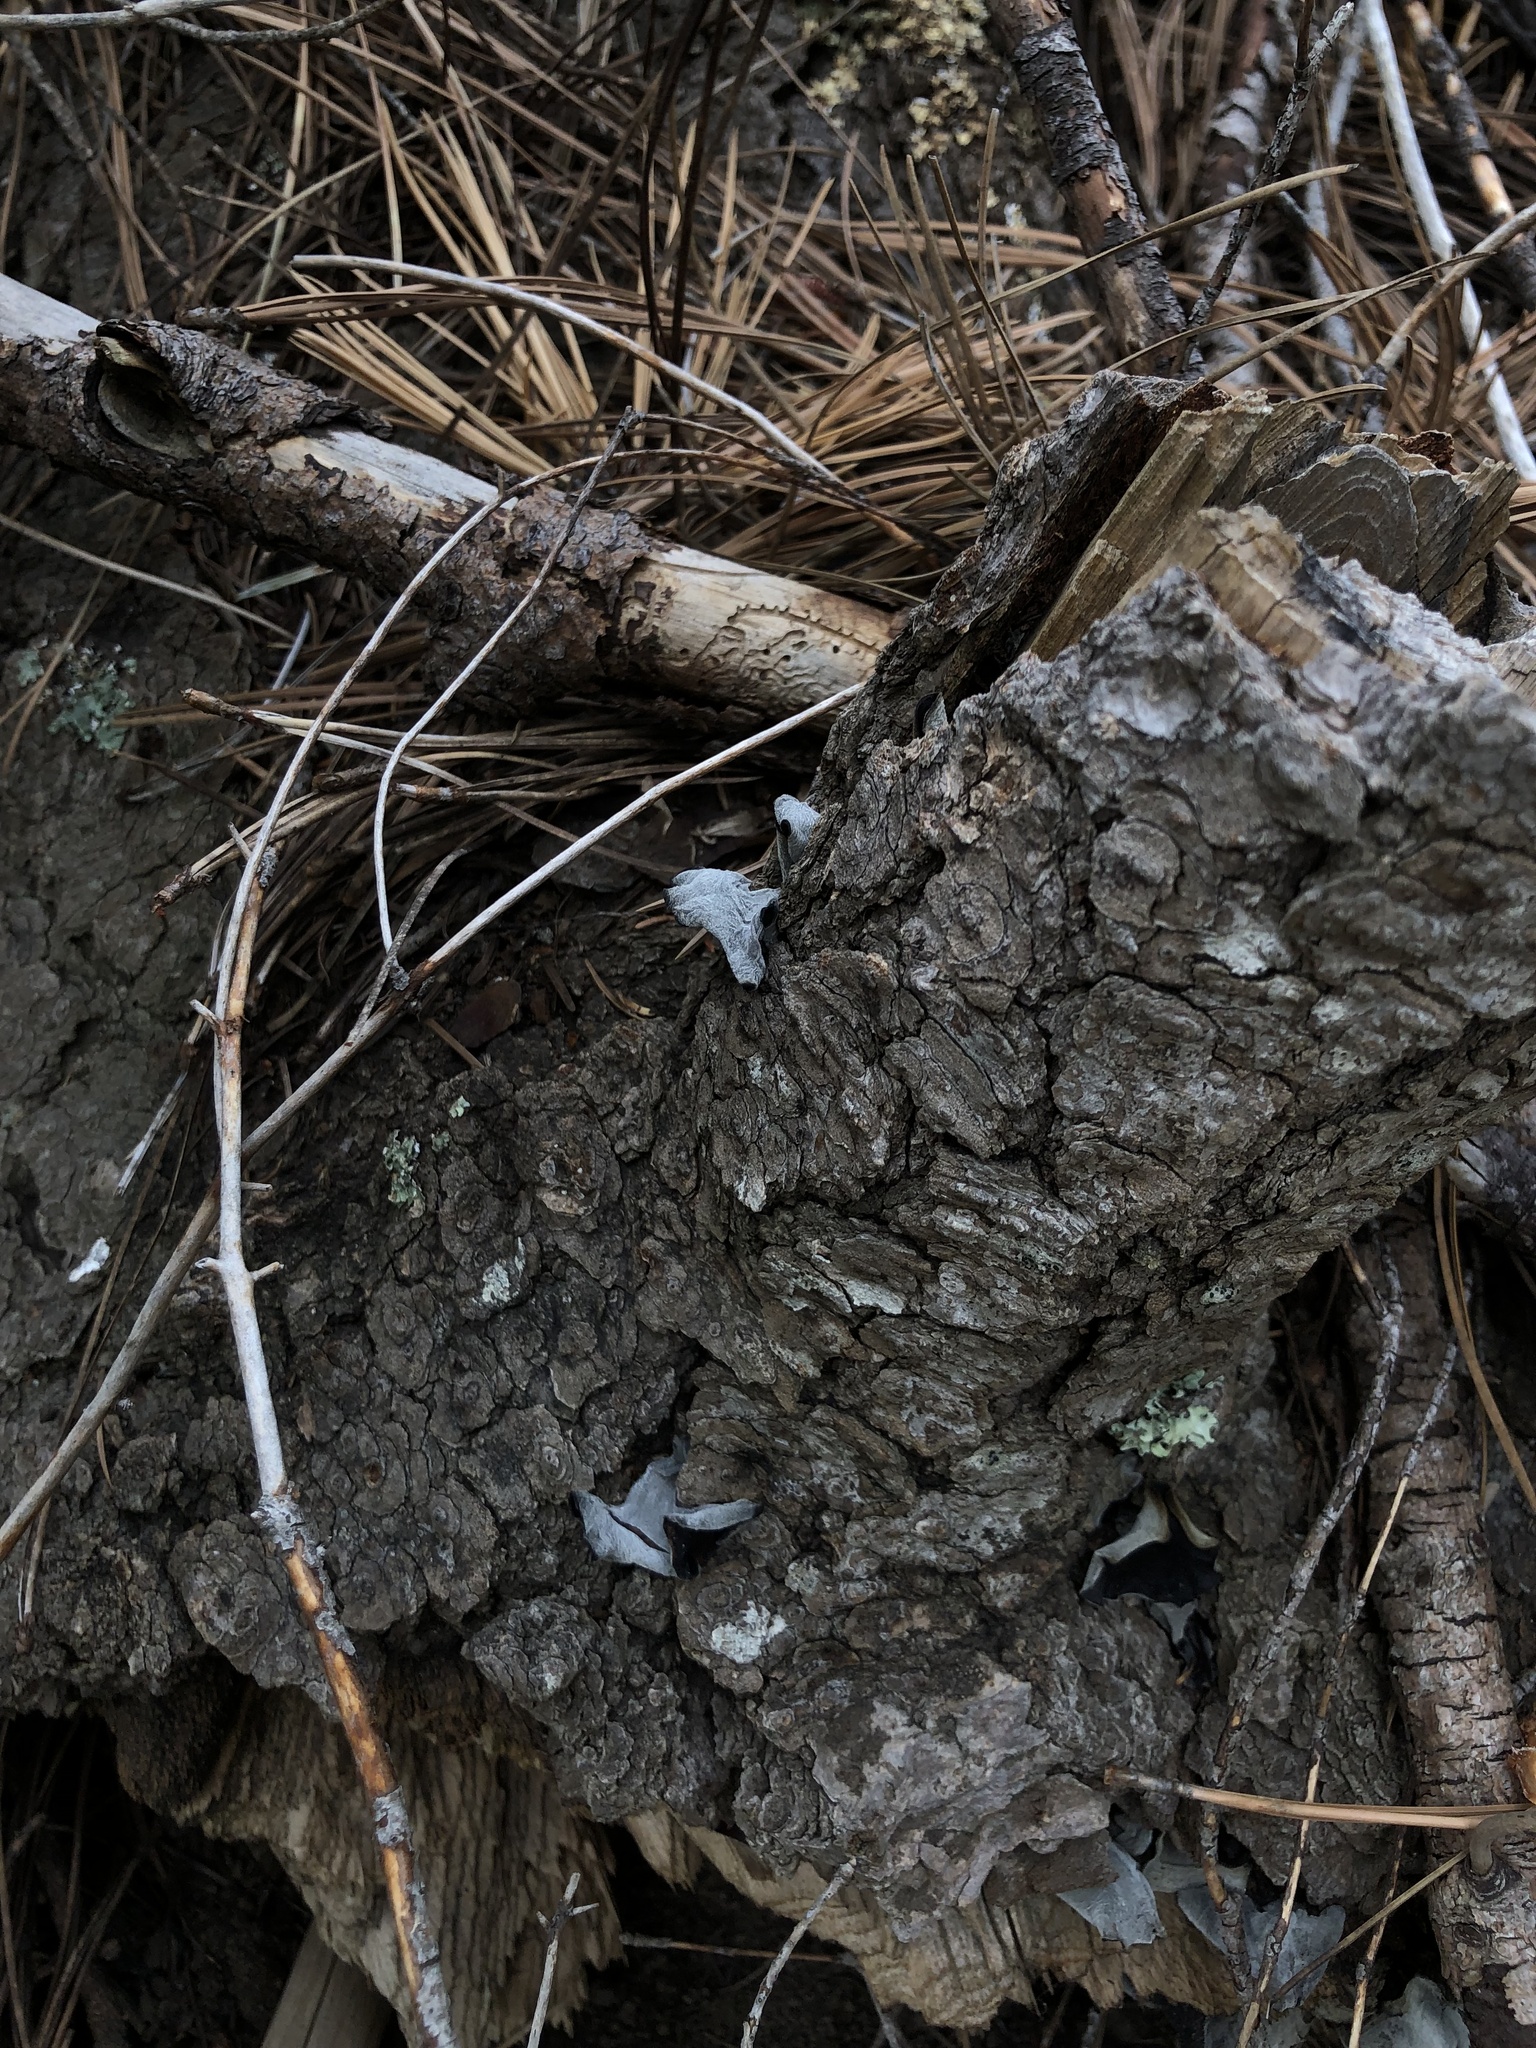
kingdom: Fungi
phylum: Basidiomycota
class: Agaricomycetes
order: Auriculariales
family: Auriculariaceae
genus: Auricularia
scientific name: Auricularia americana
